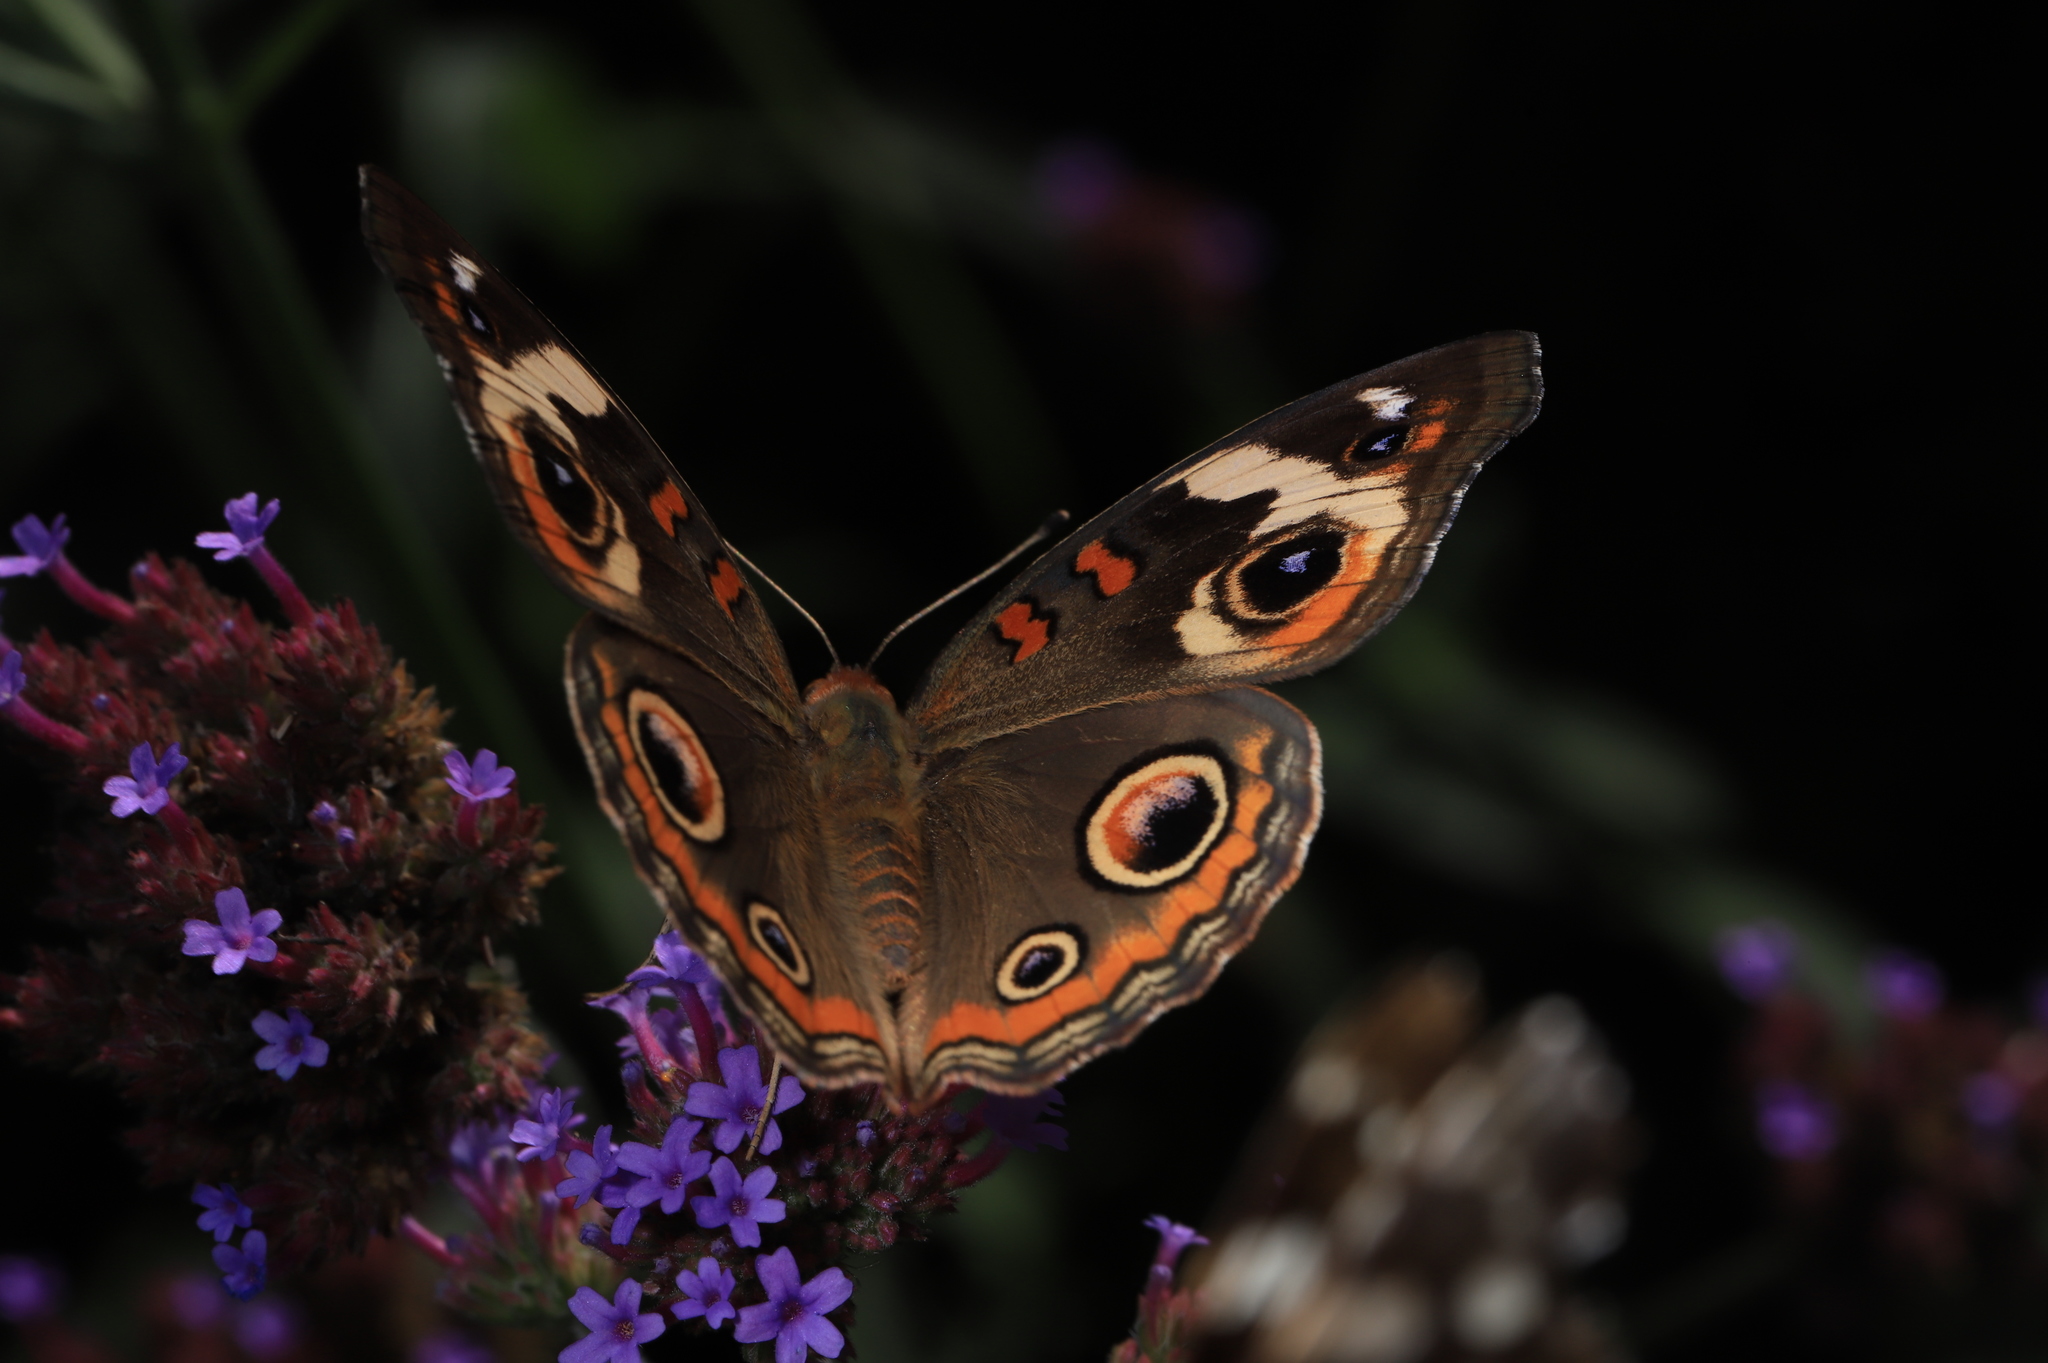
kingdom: Animalia
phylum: Arthropoda
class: Insecta
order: Lepidoptera
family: Nymphalidae
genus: Junonia
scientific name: Junonia coenia
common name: Common buckeye
